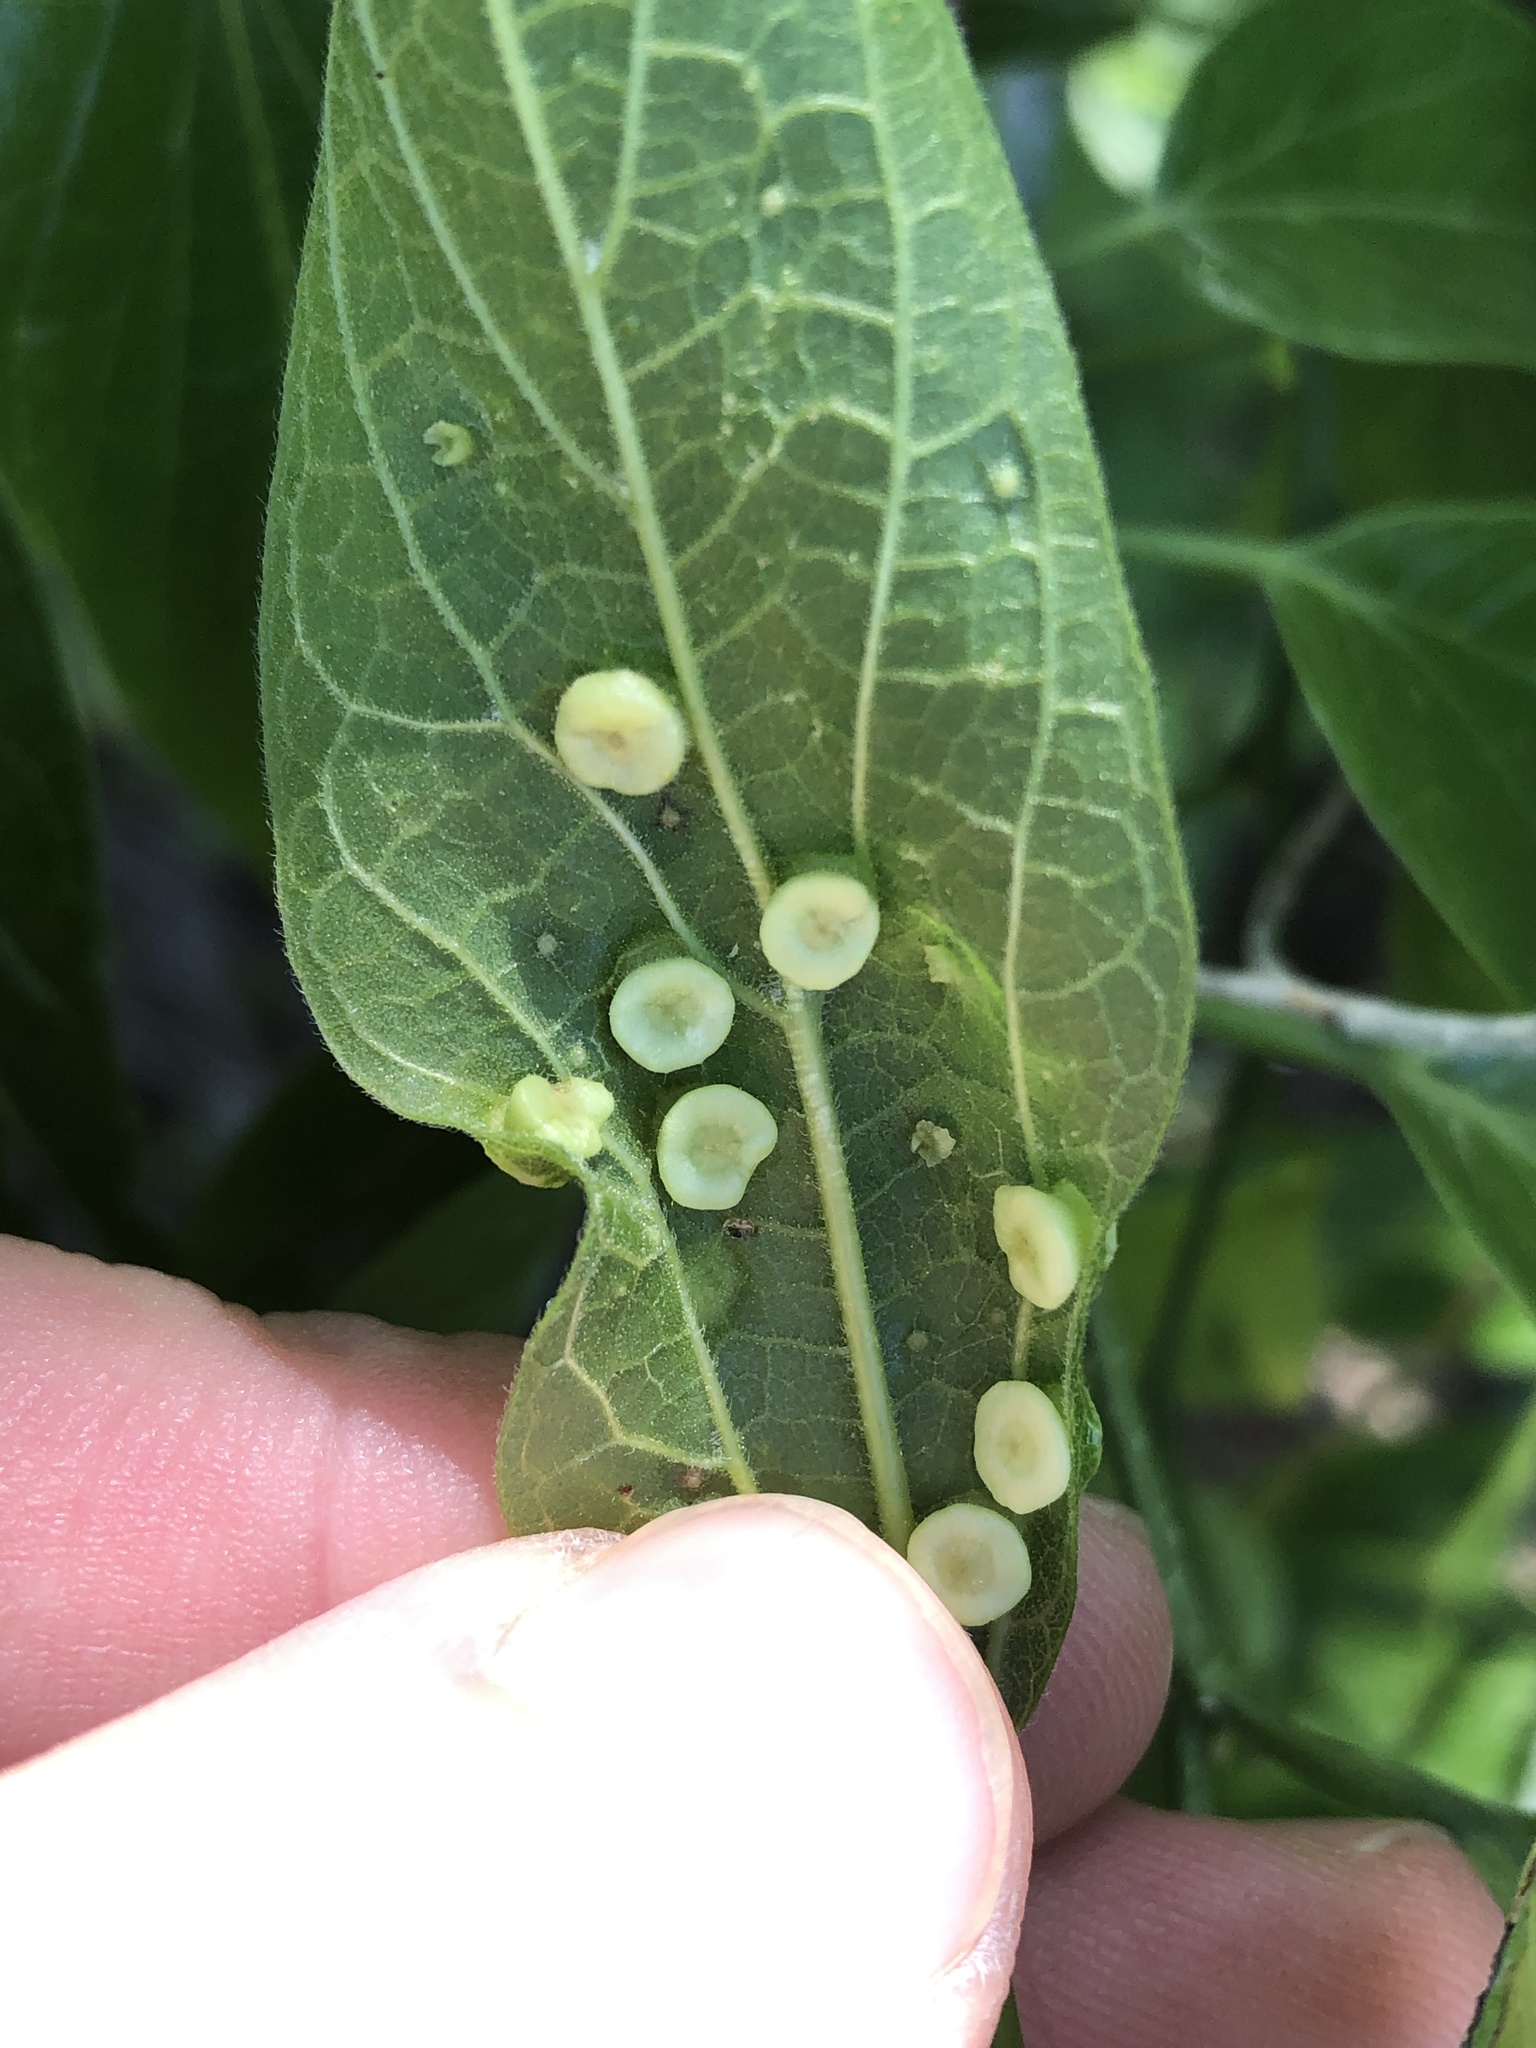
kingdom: Animalia
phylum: Arthropoda
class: Insecta
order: Hemiptera
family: Aphalaridae
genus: Pachypsylla
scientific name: Pachypsylla celtidismamma
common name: Hackberry nipplegall psyllid
